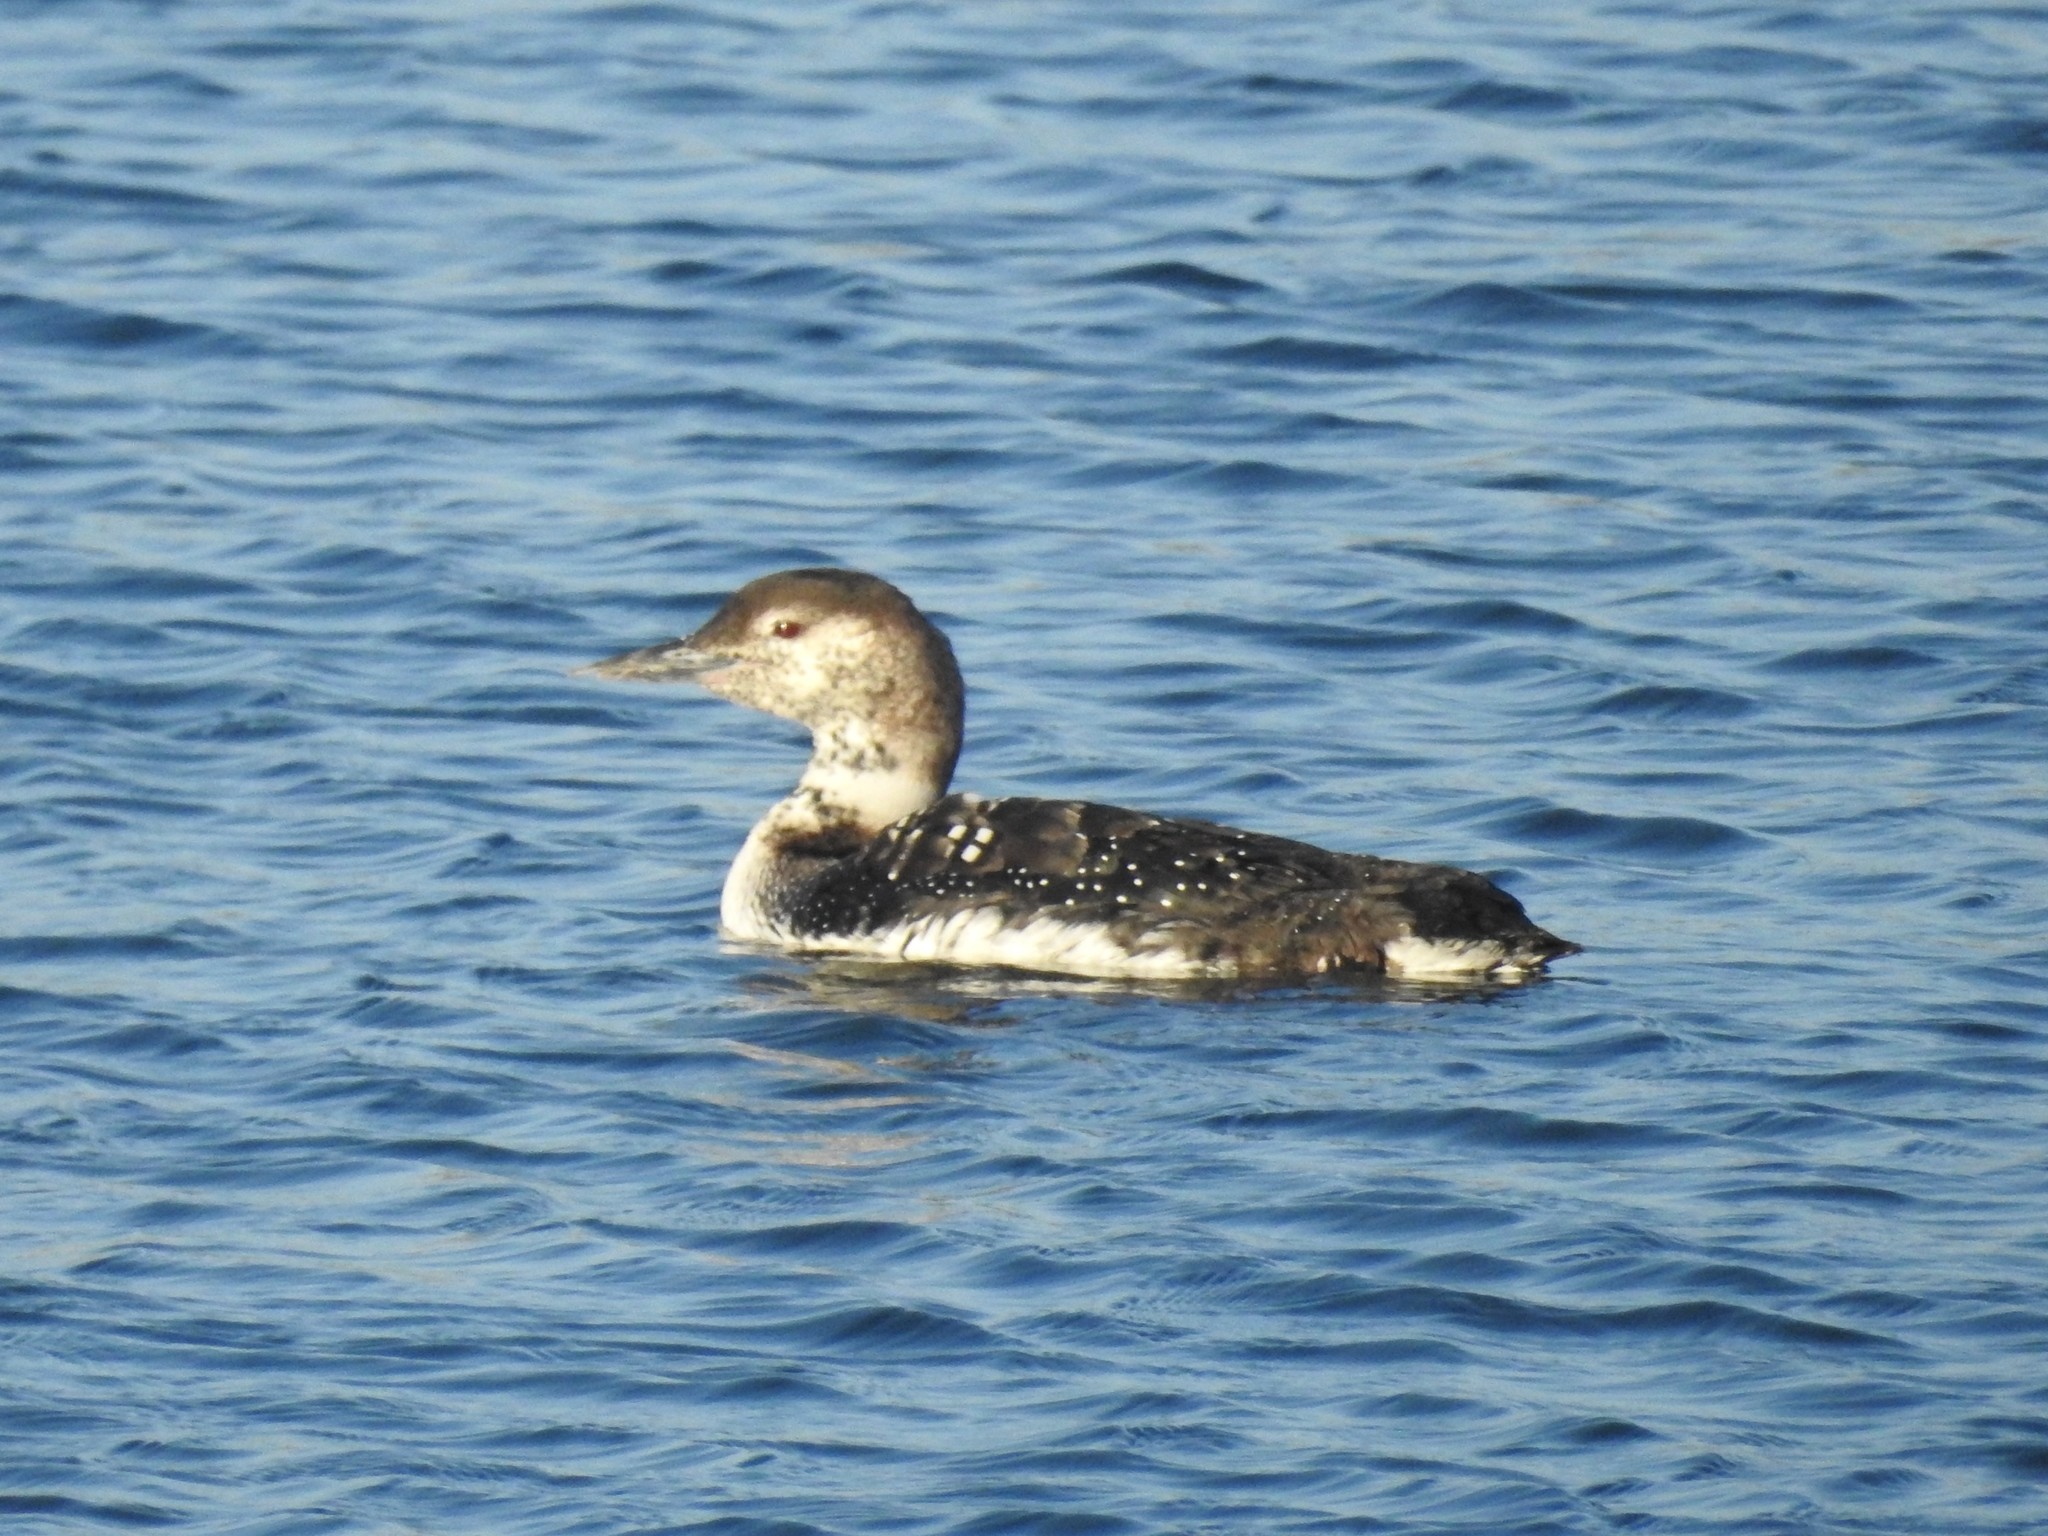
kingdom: Animalia
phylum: Chordata
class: Aves
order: Gaviiformes
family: Gaviidae
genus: Gavia
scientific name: Gavia immer
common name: Common loon
